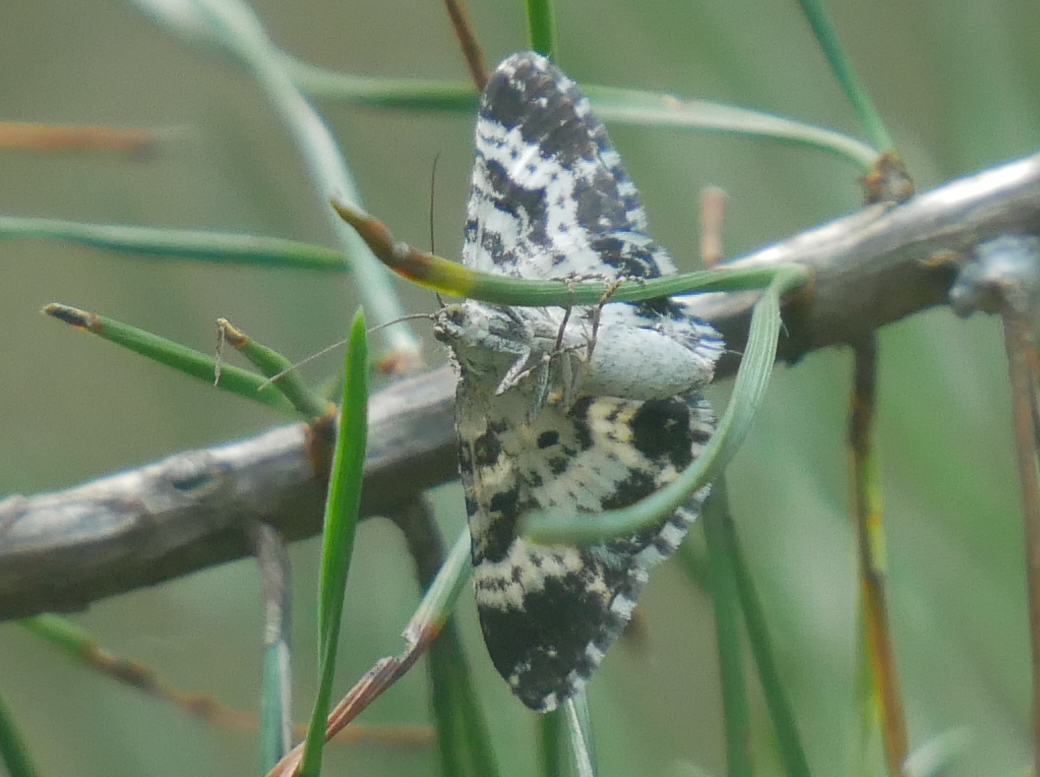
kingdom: Animalia
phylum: Arthropoda
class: Insecta
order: Lepidoptera
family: Geometridae
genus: Epirrhoe
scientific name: Epirrhoe tristata
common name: Small argent & sable
